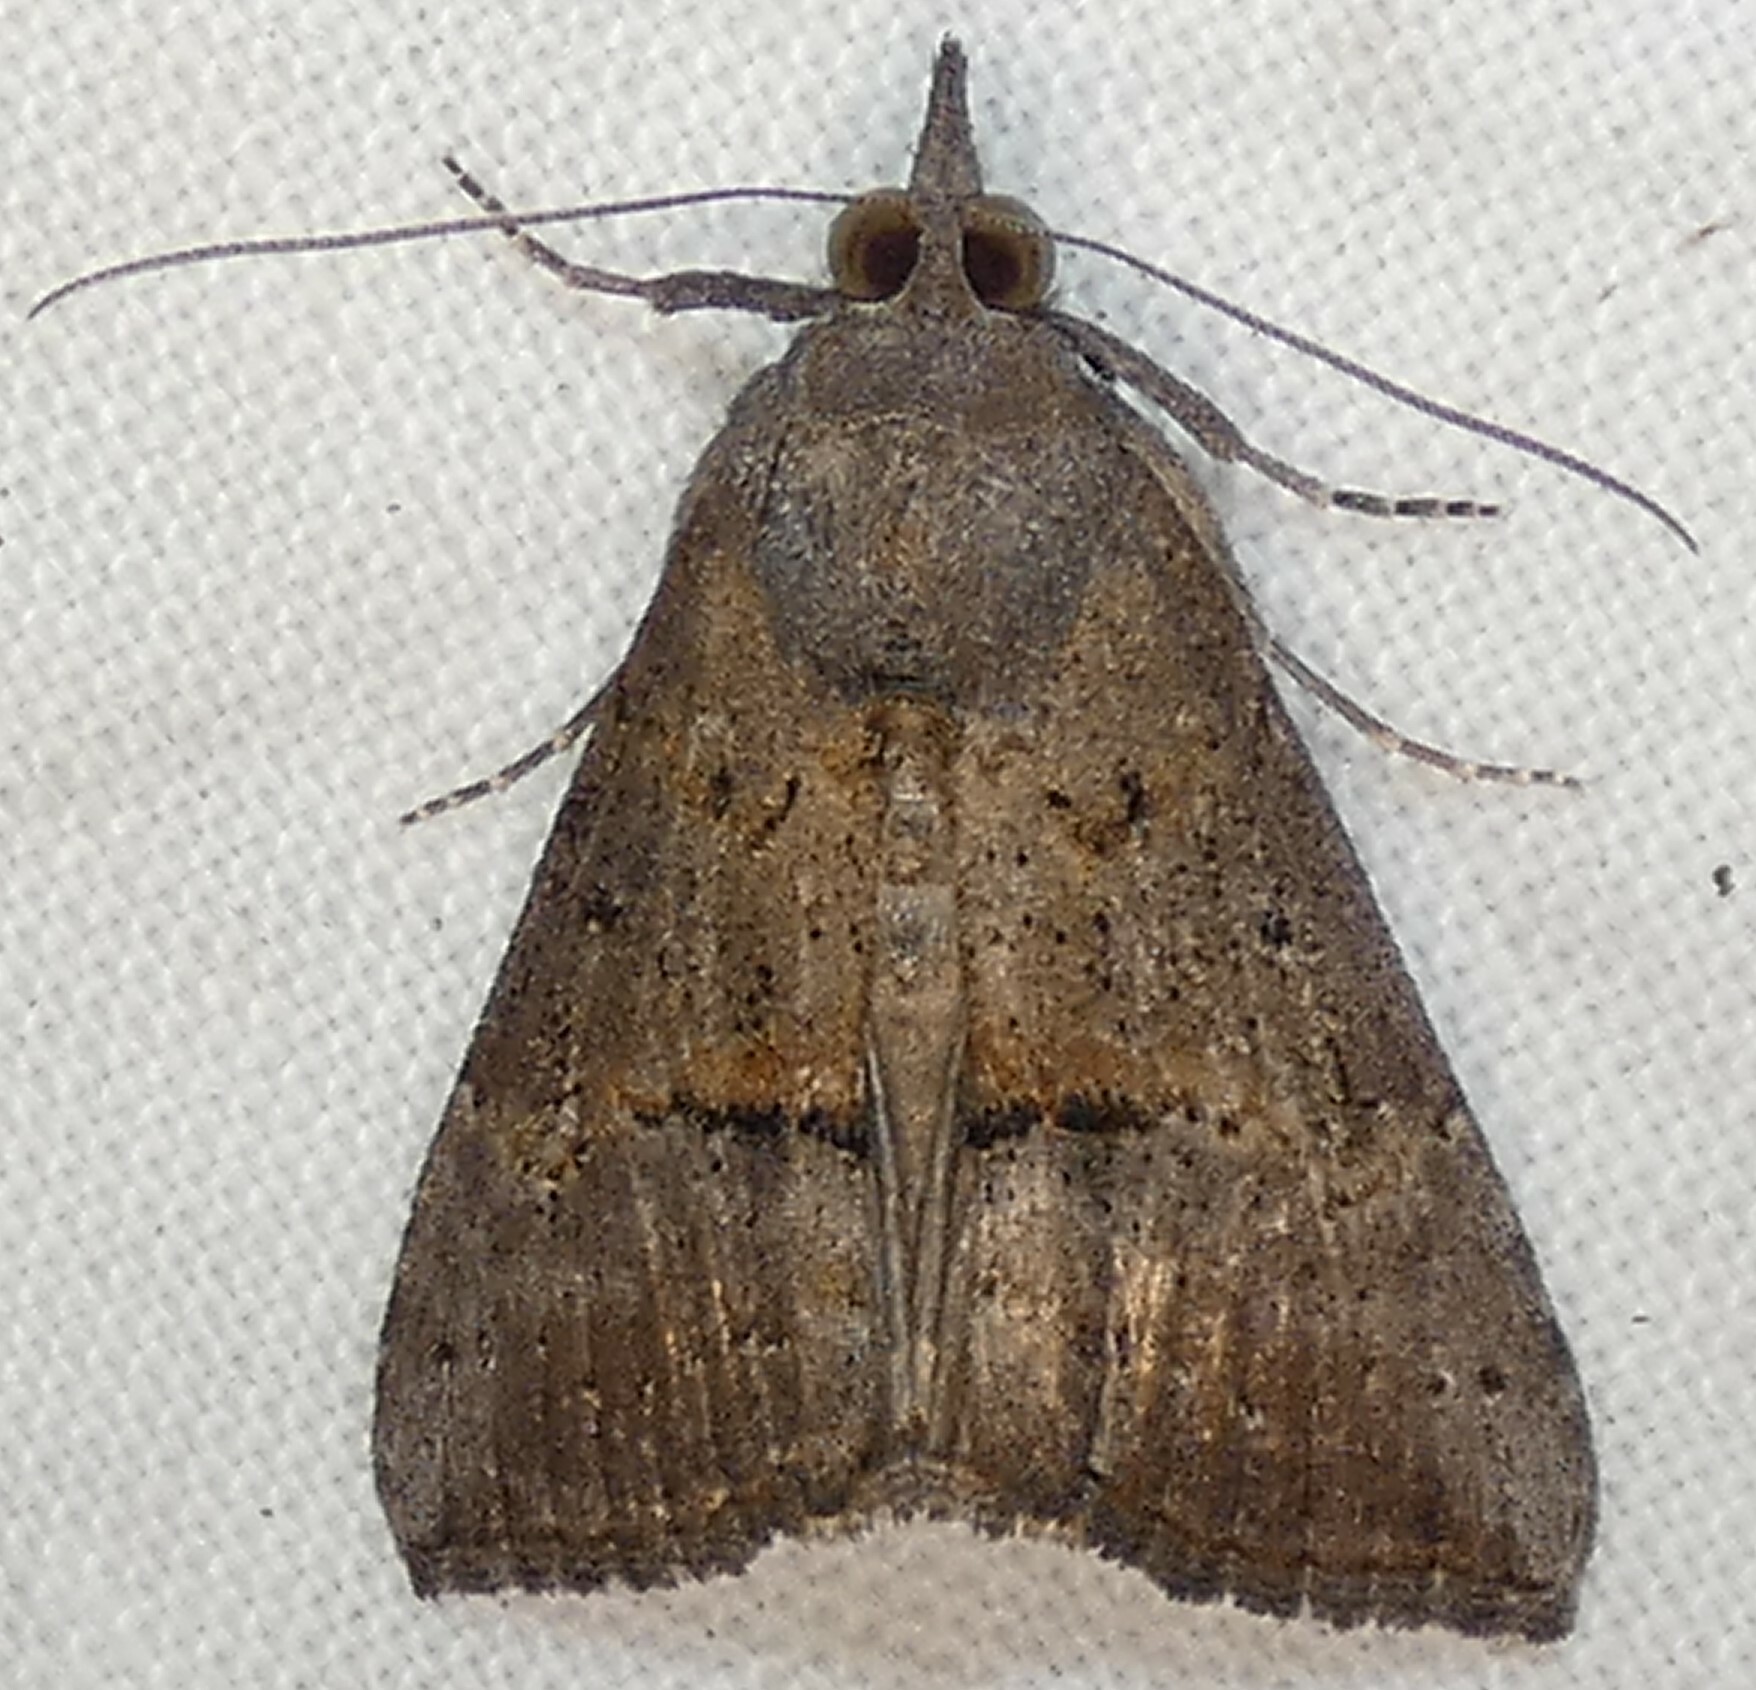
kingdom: Animalia
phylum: Arthropoda
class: Insecta
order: Lepidoptera
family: Erebidae
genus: Hypena
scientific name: Hypena scabra
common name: Green cloverworm
